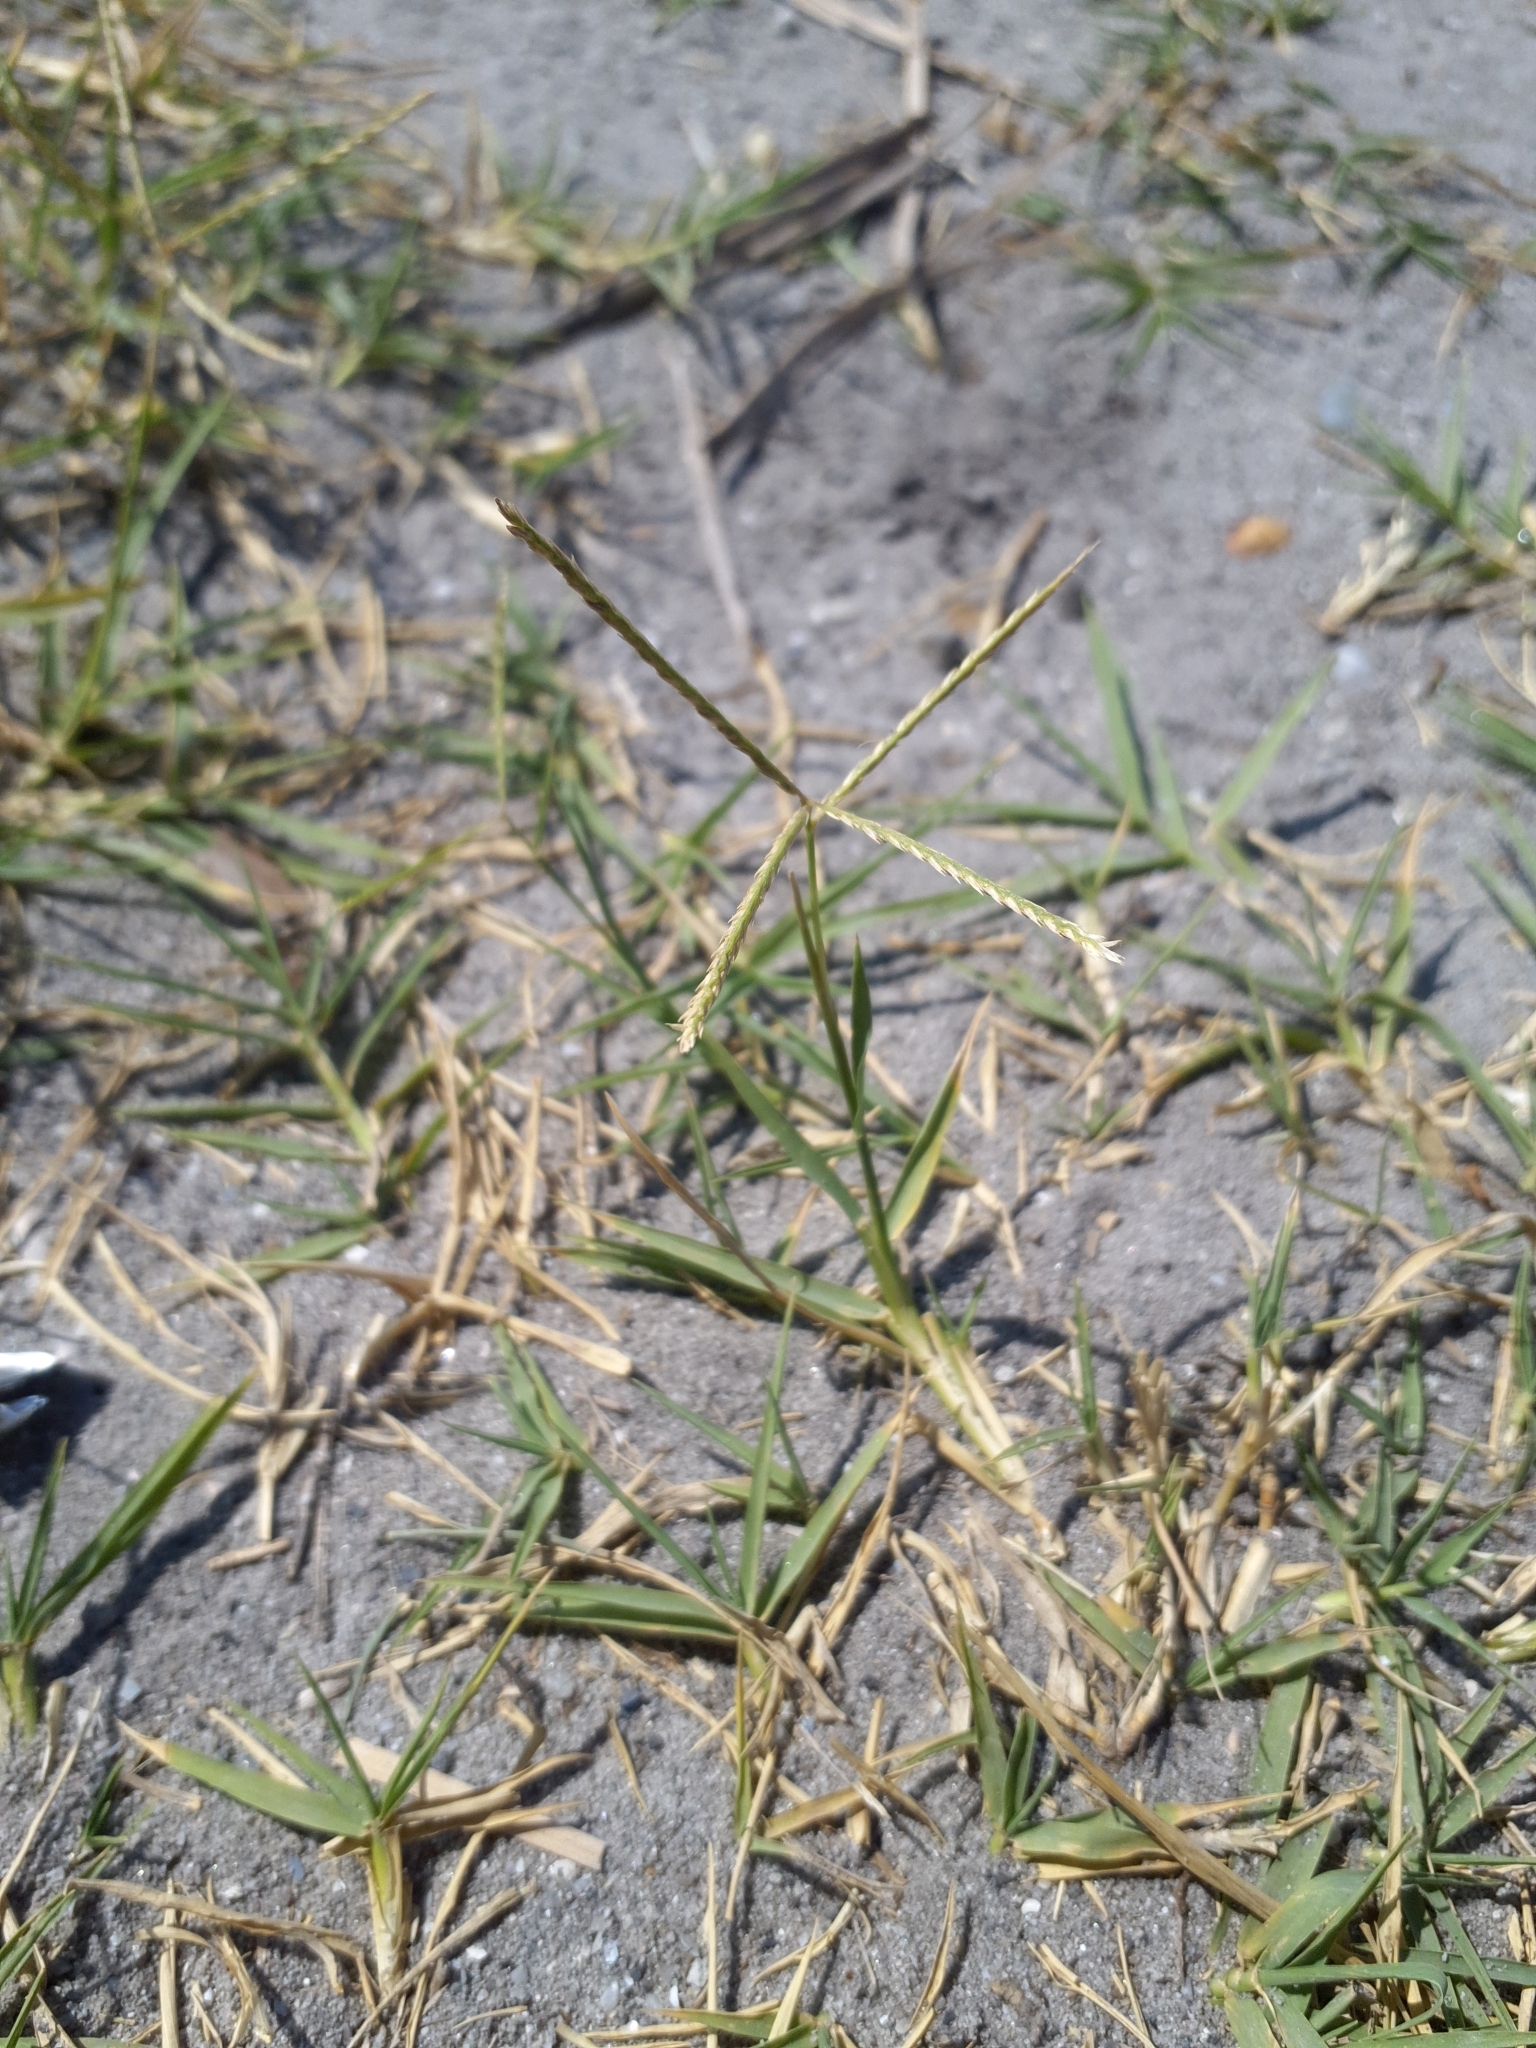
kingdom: Plantae
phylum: Tracheophyta
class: Liliopsida
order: Poales
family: Poaceae
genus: Cynodon
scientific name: Cynodon dactylon
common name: Bermuda grass
